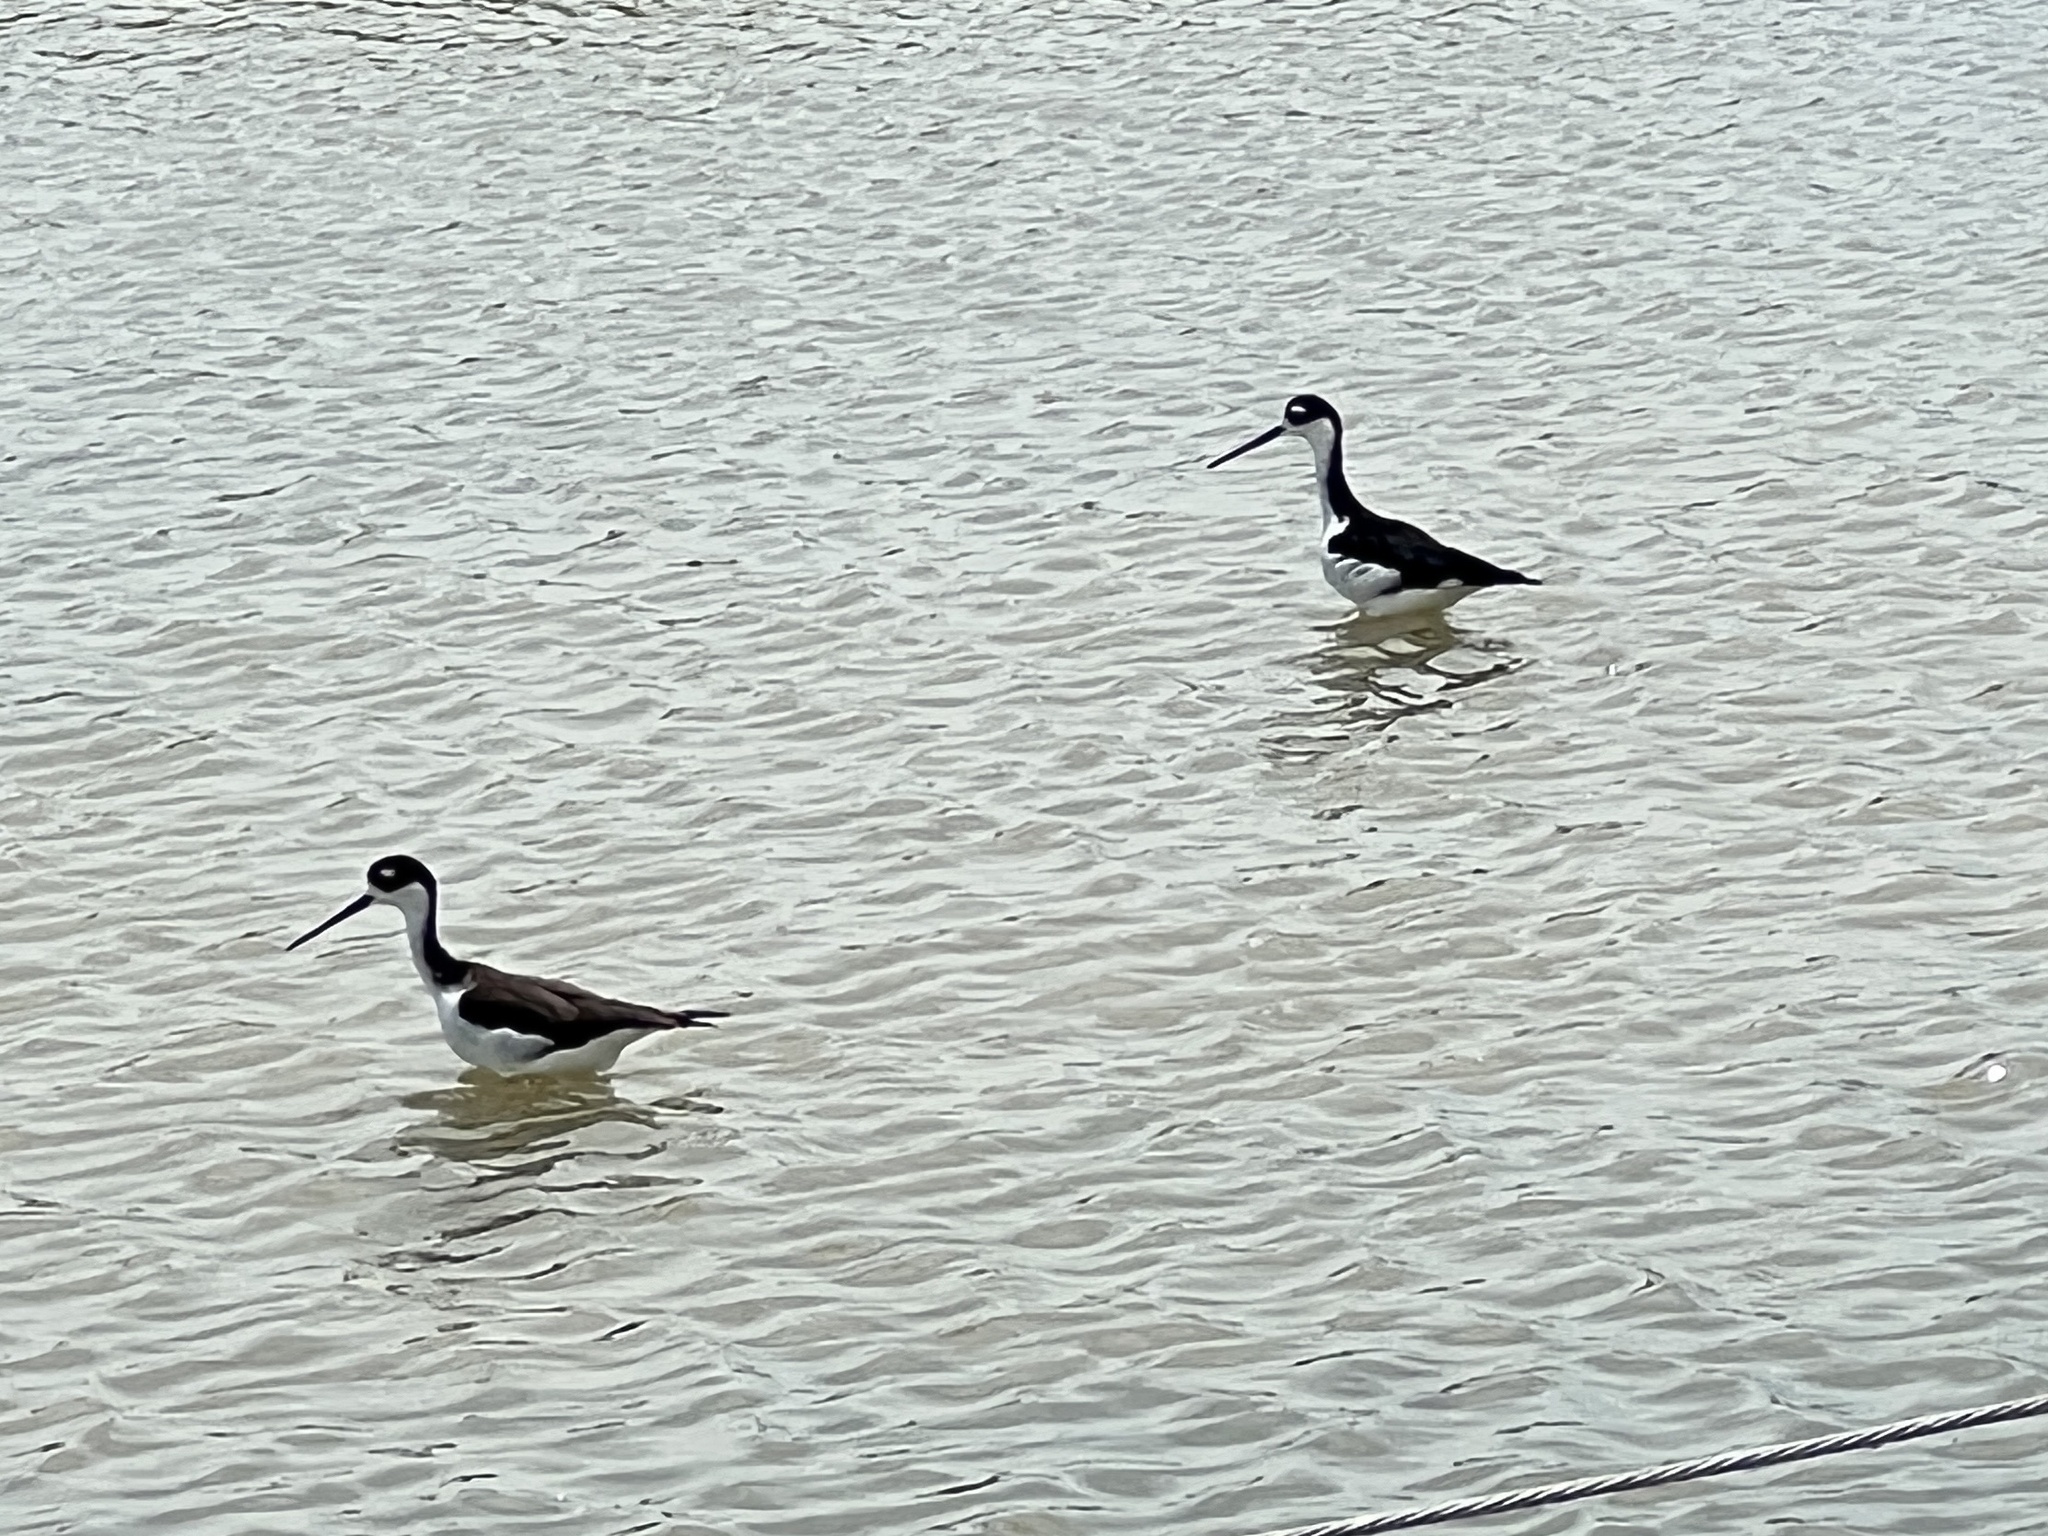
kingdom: Animalia
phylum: Chordata
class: Aves
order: Charadriiformes
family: Recurvirostridae
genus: Himantopus
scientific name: Himantopus mexicanus
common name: Black-necked stilt
